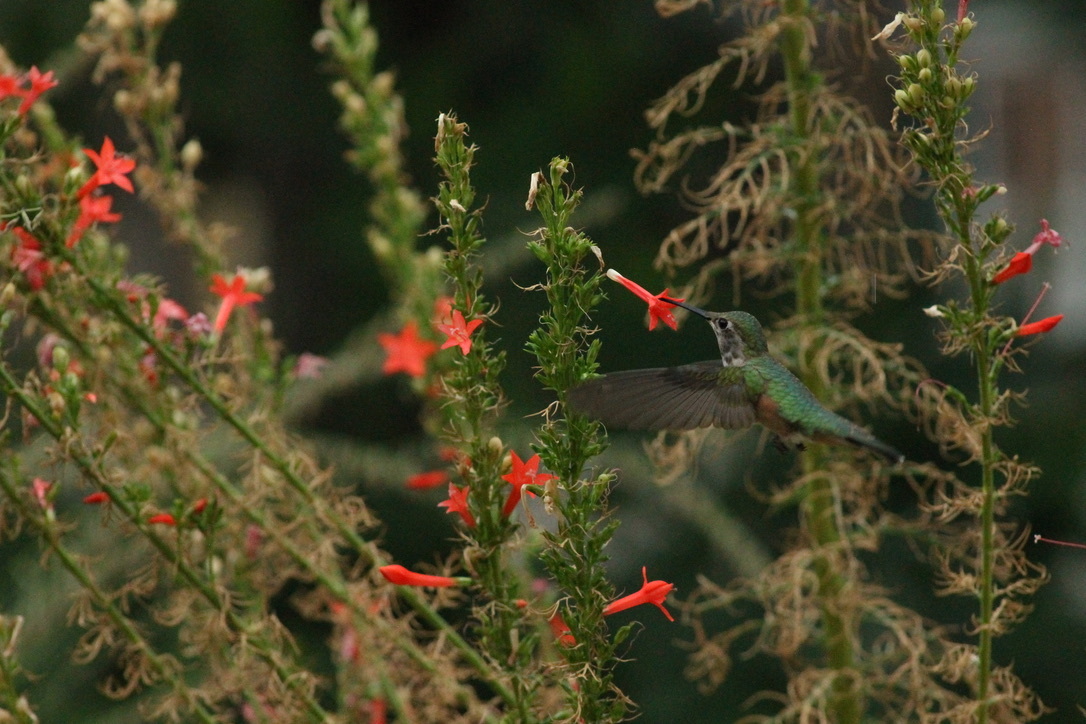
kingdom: Animalia
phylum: Chordata
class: Aves
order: Apodiformes
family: Trochilidae
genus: Selasphorus
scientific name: Selasphorus platycercus
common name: Broad-tailed hummingbird
